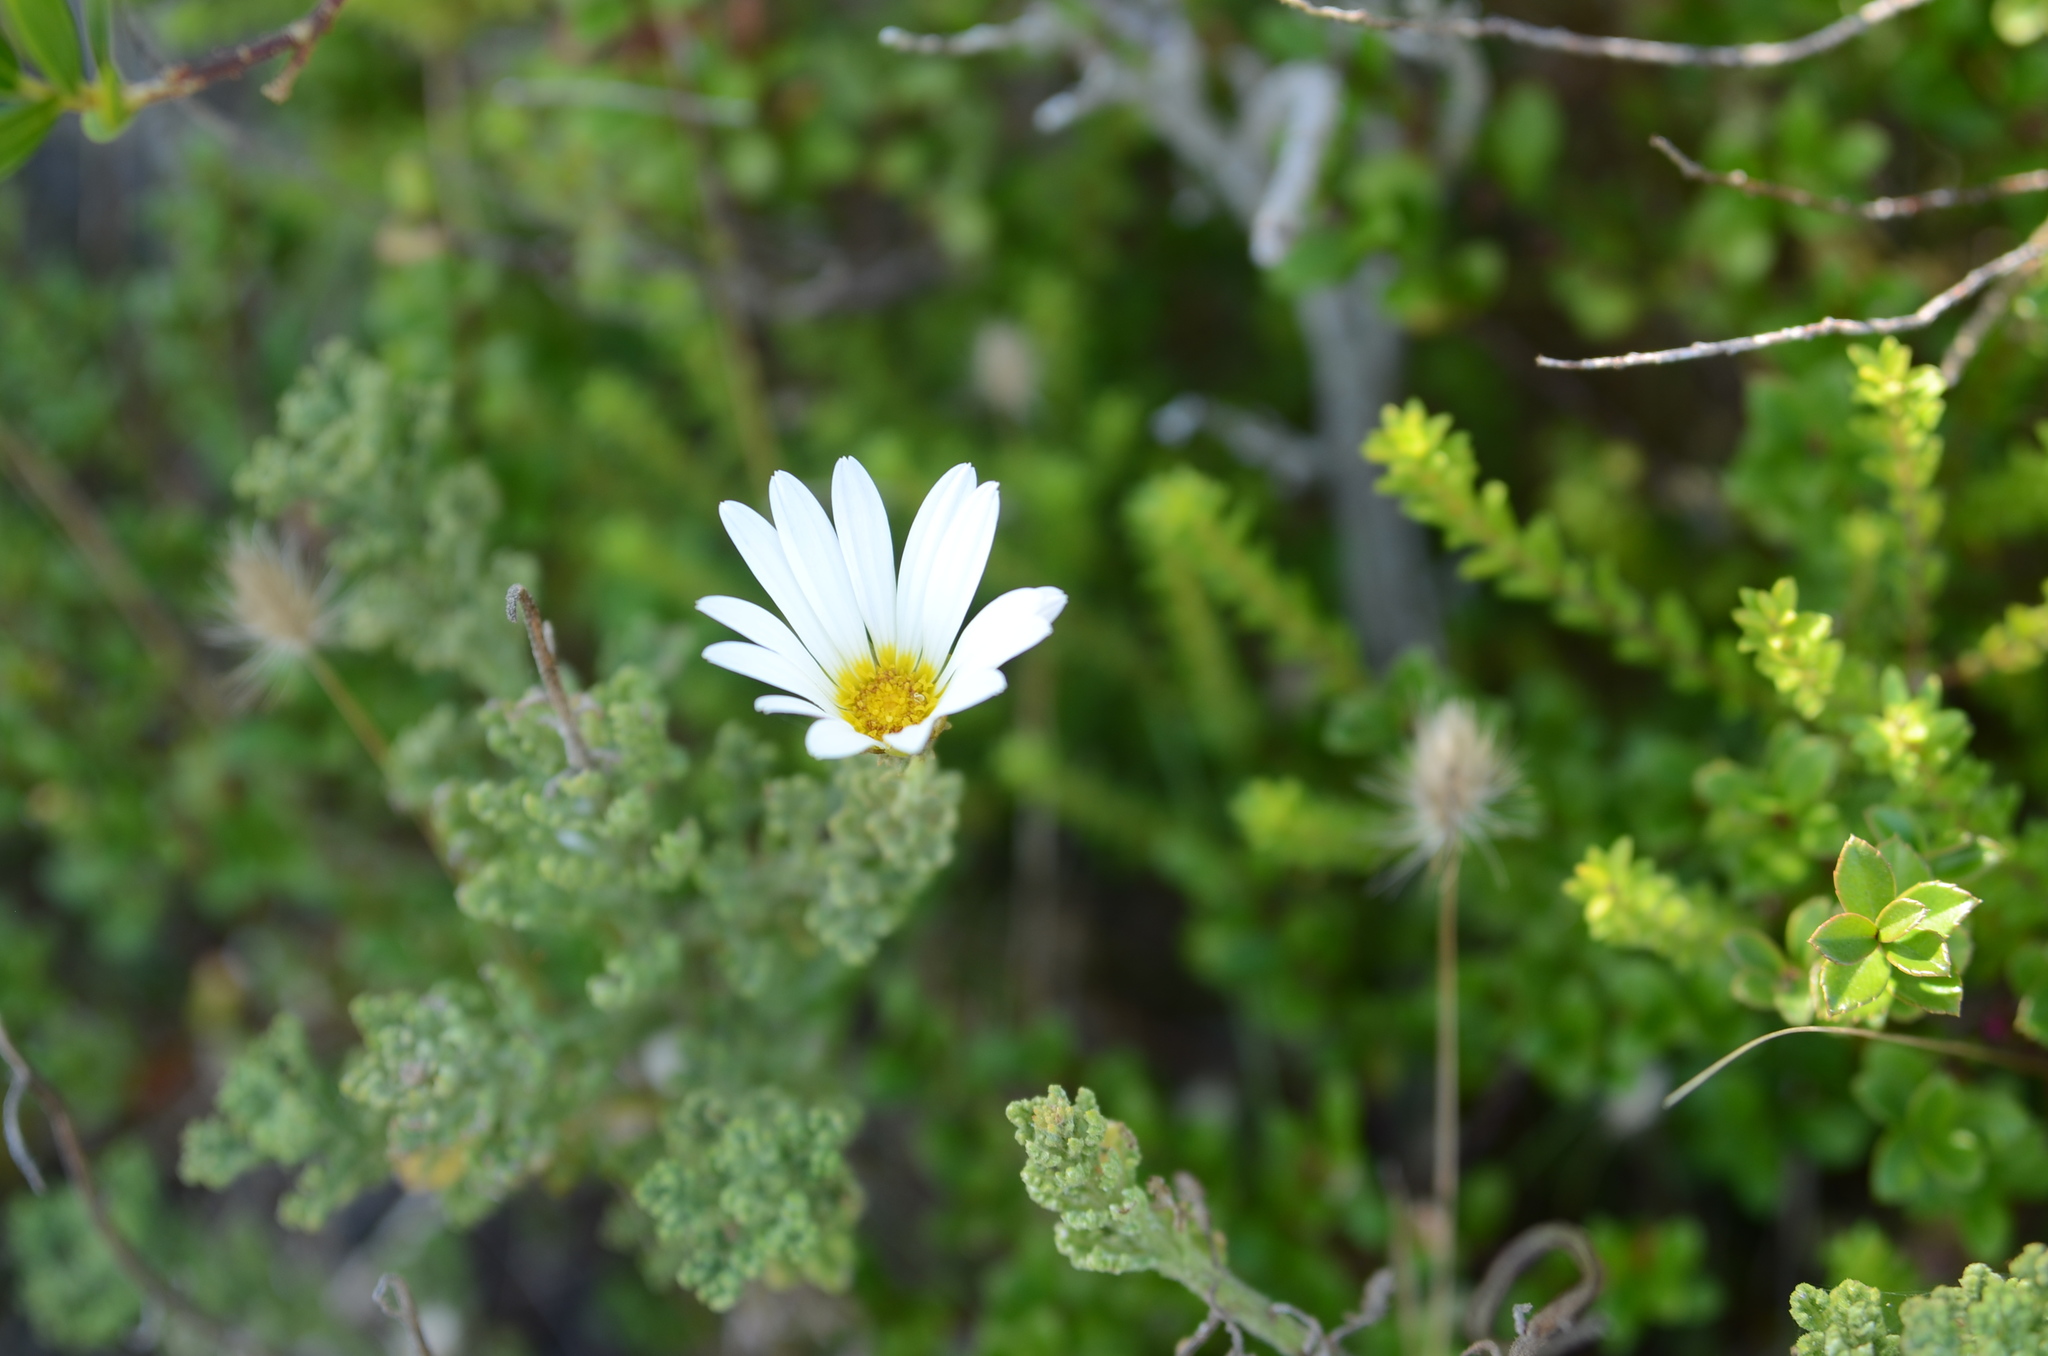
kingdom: Plantae
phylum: Tracheophyta
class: Magnoliopsida
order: Asterales
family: Asteraceae
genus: Arctotis
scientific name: Arctotis aspera
